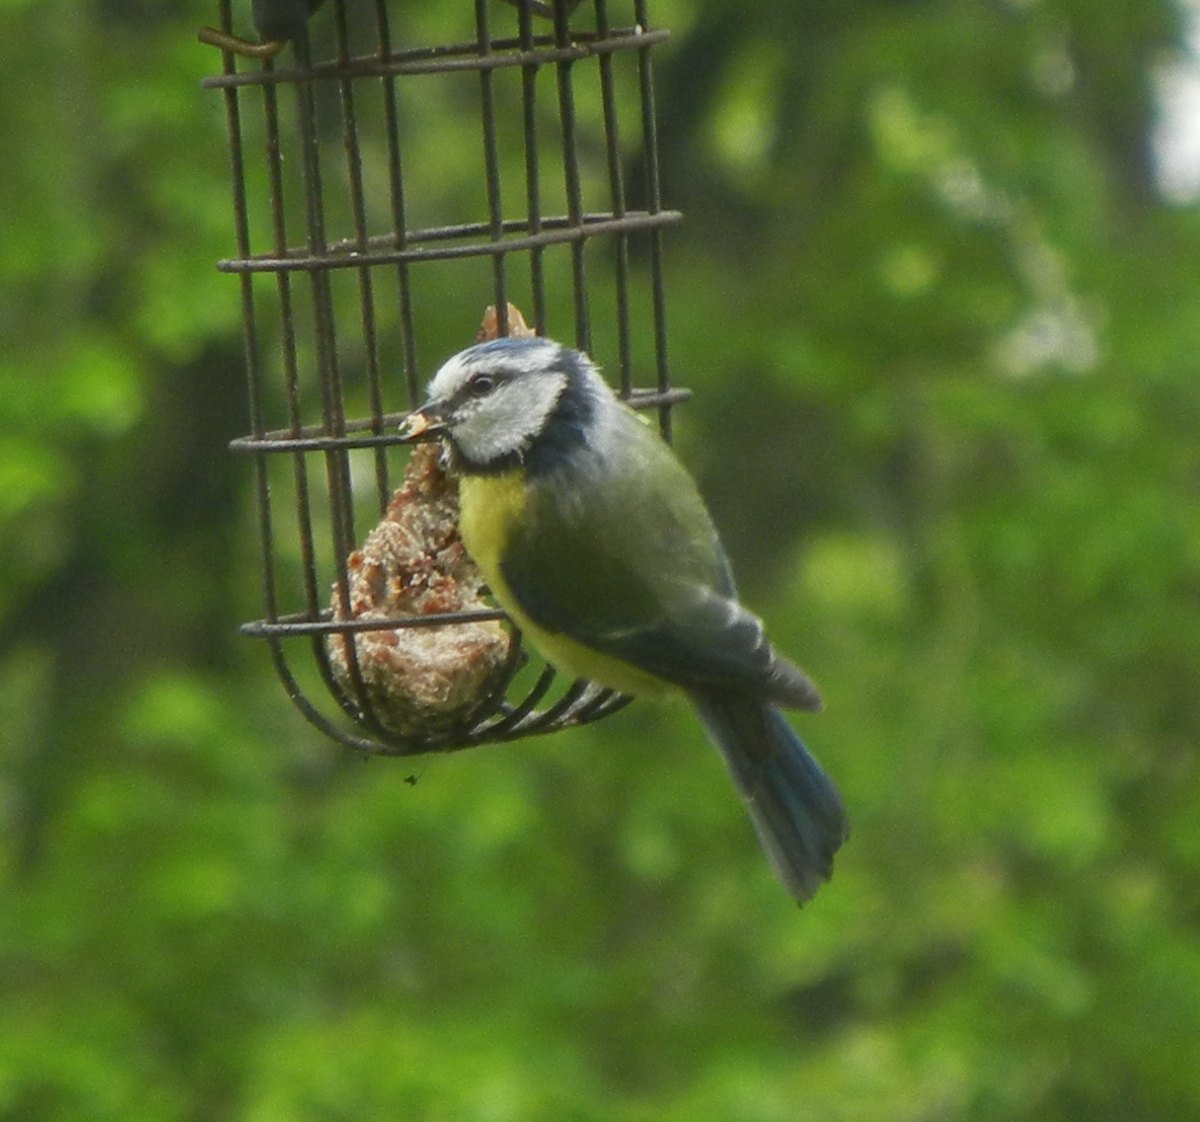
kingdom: Animalia
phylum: Chordata
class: Aves
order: Passeriformes
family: Paridae
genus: Cyanistes
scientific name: Cyanistes caeruleus
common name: Eurasian blue tit
